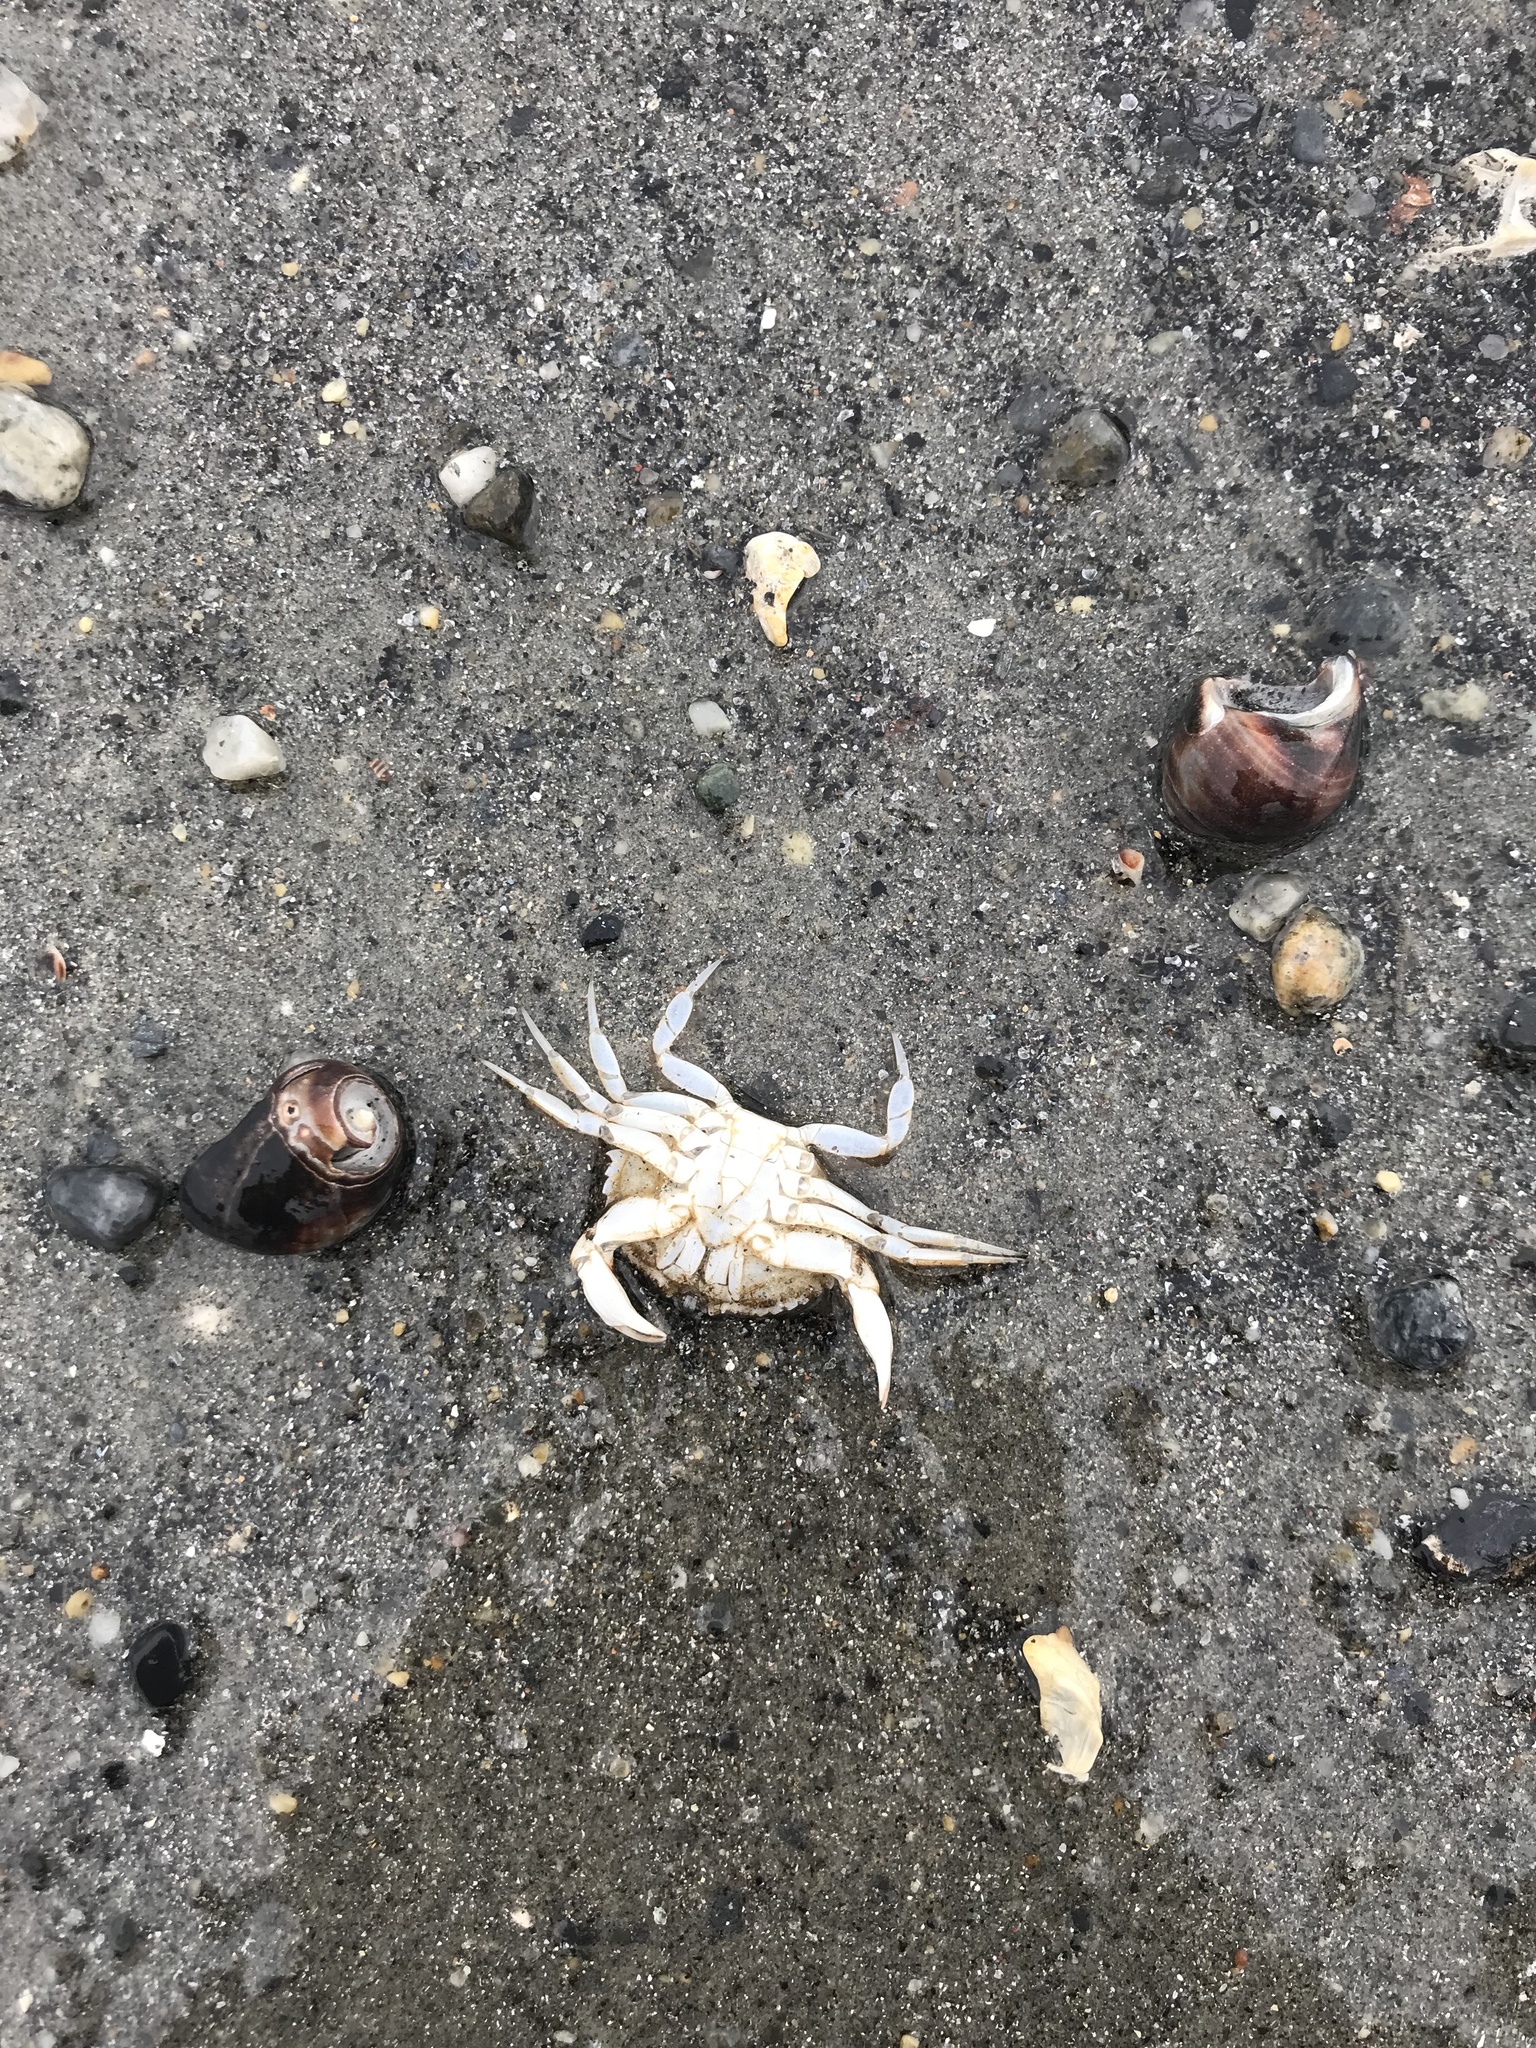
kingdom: Animalia
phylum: Arthropoda
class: Malacostraca
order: Decapoda
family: Cancridae
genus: Cancer
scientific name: Cancer irroratus
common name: Atlantic rock crab
